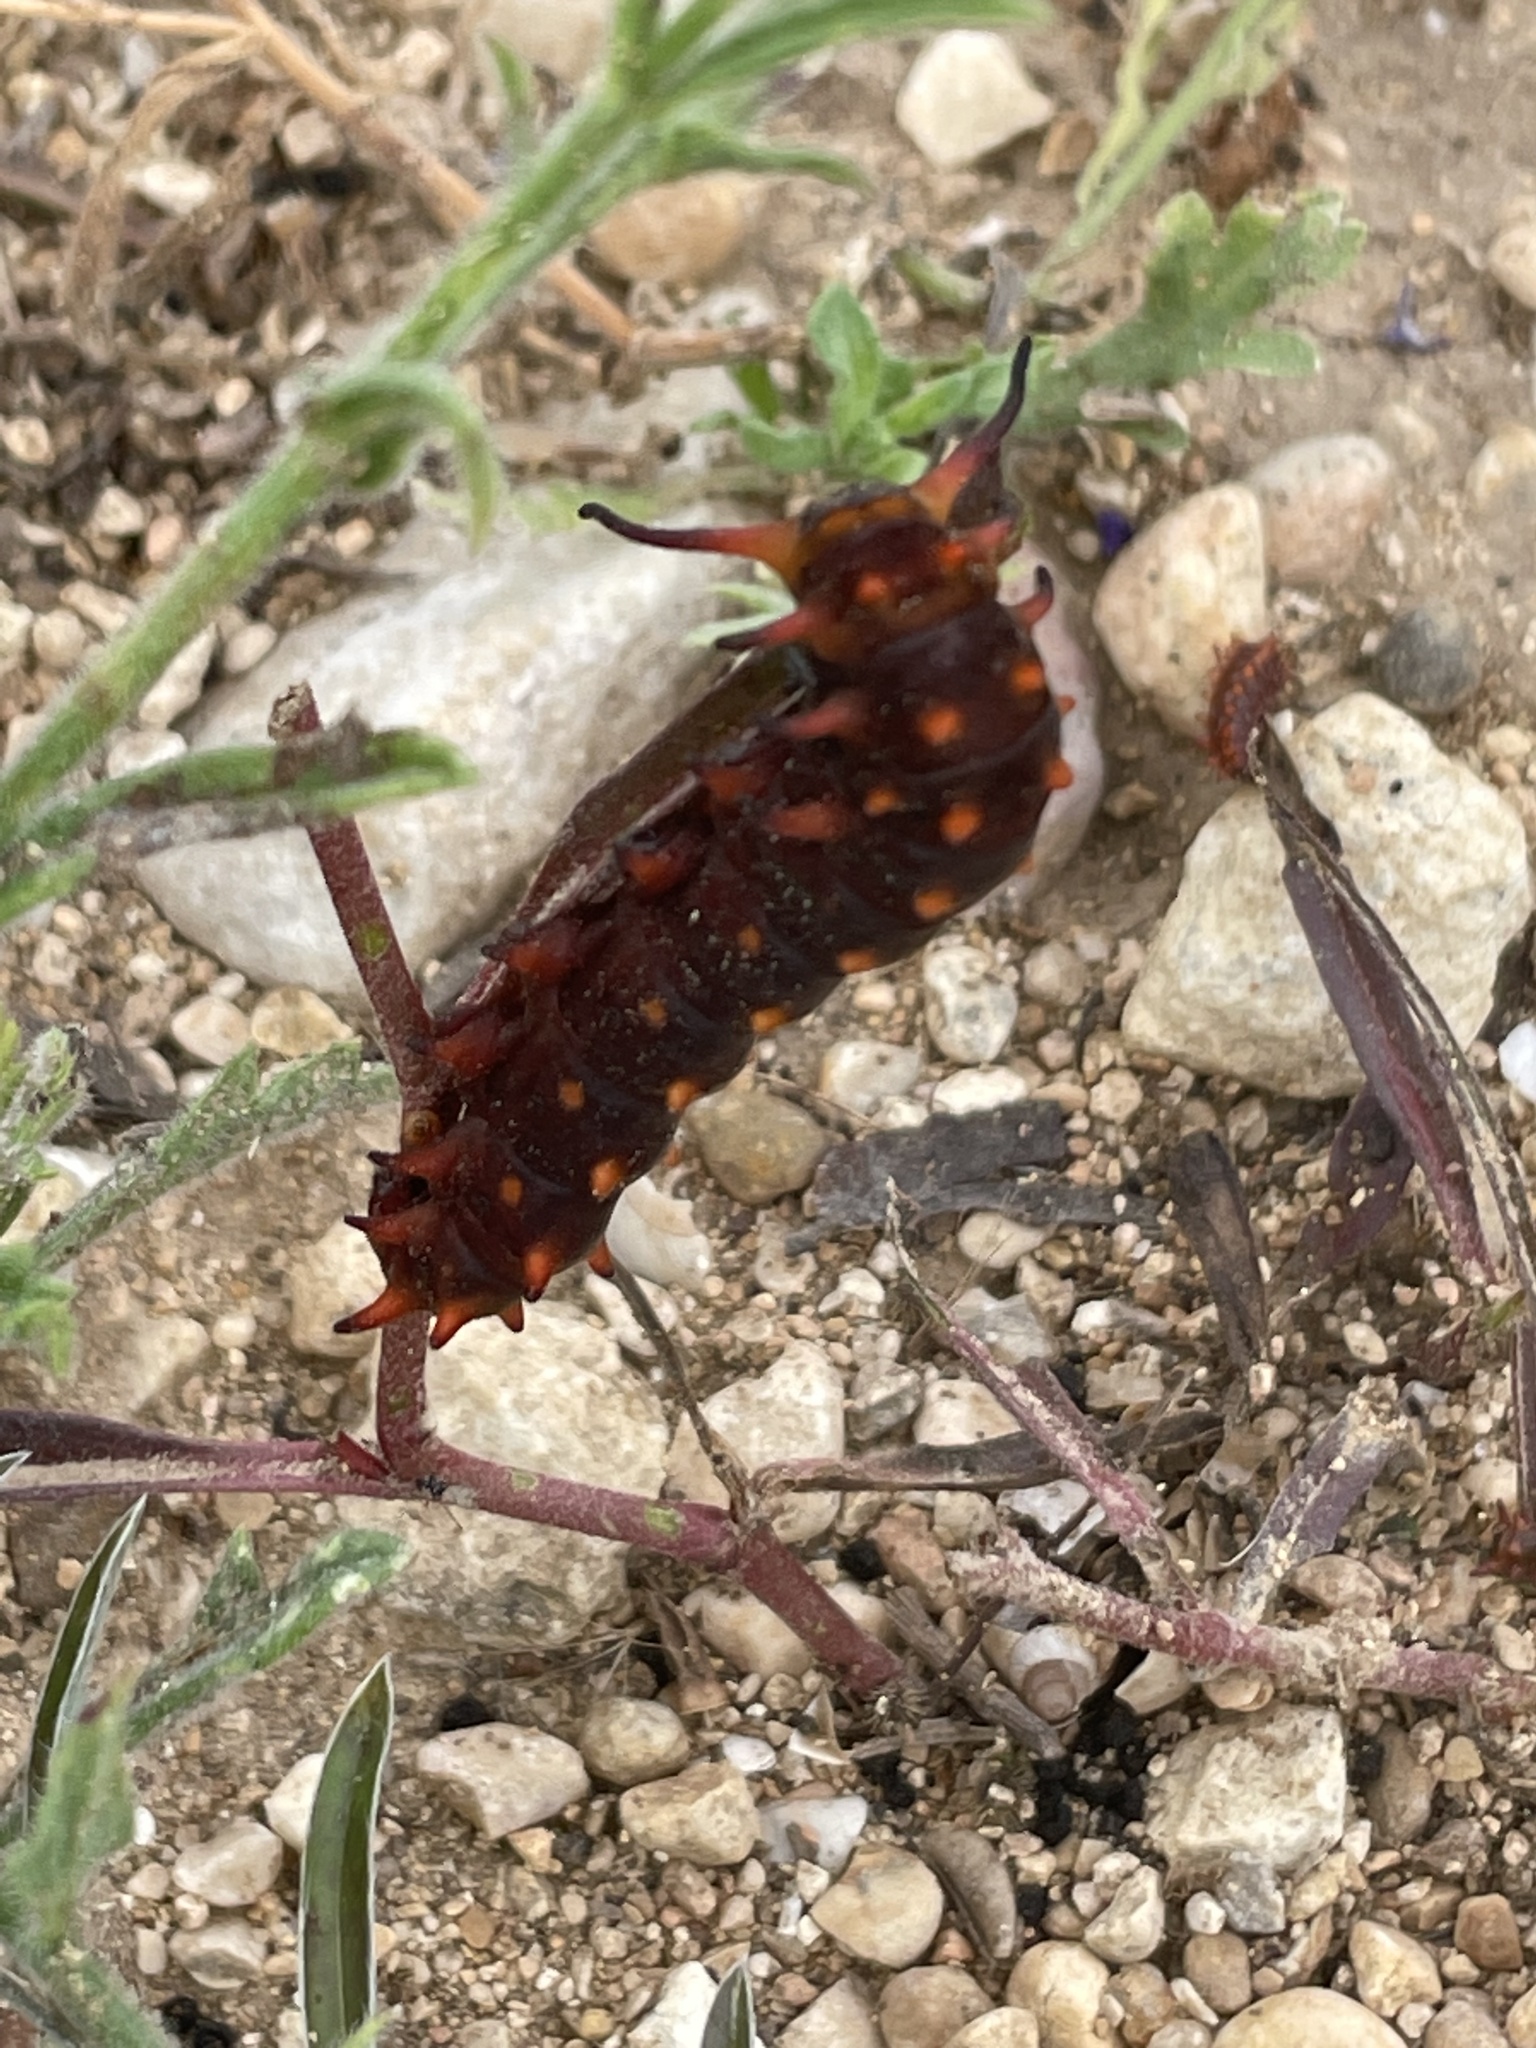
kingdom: Animalia
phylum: Arthropoda
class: Insecta
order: Lepidoptera
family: Papilionidae
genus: Battus
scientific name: Battus philenor
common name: Pipevine swallowtail
